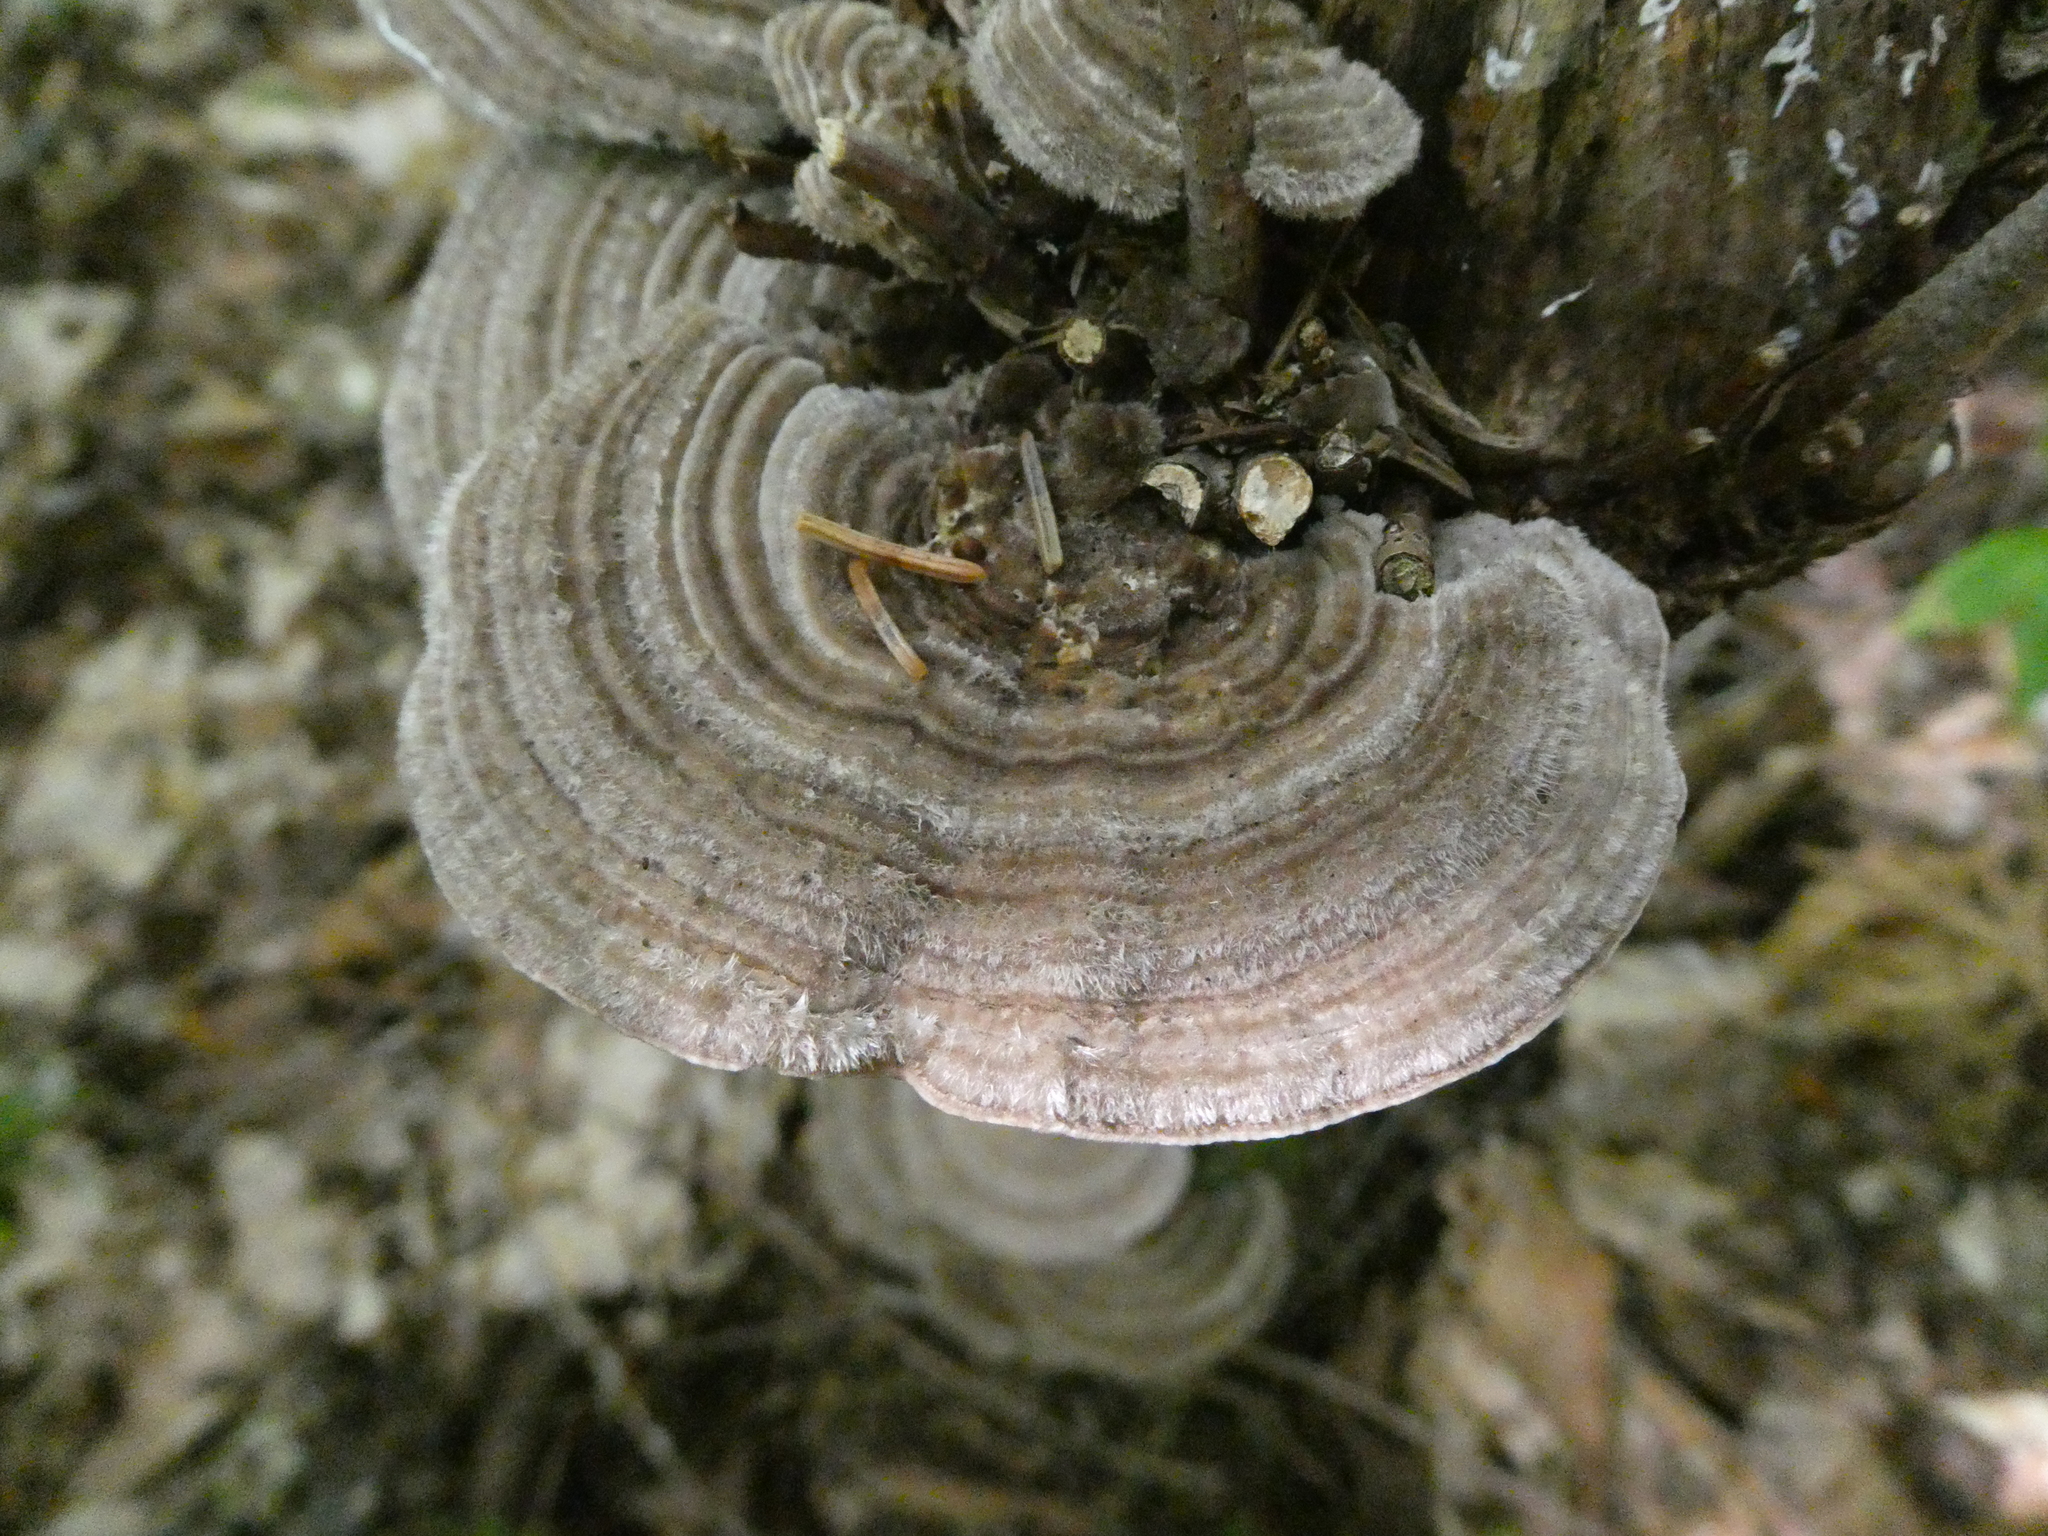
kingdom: Fungi
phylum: Basidiomycota
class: Agaricomycetes
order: Polyporales
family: Polyporaceae
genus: Lenzites
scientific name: Lenzites betulinus
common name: Birch mazegill
